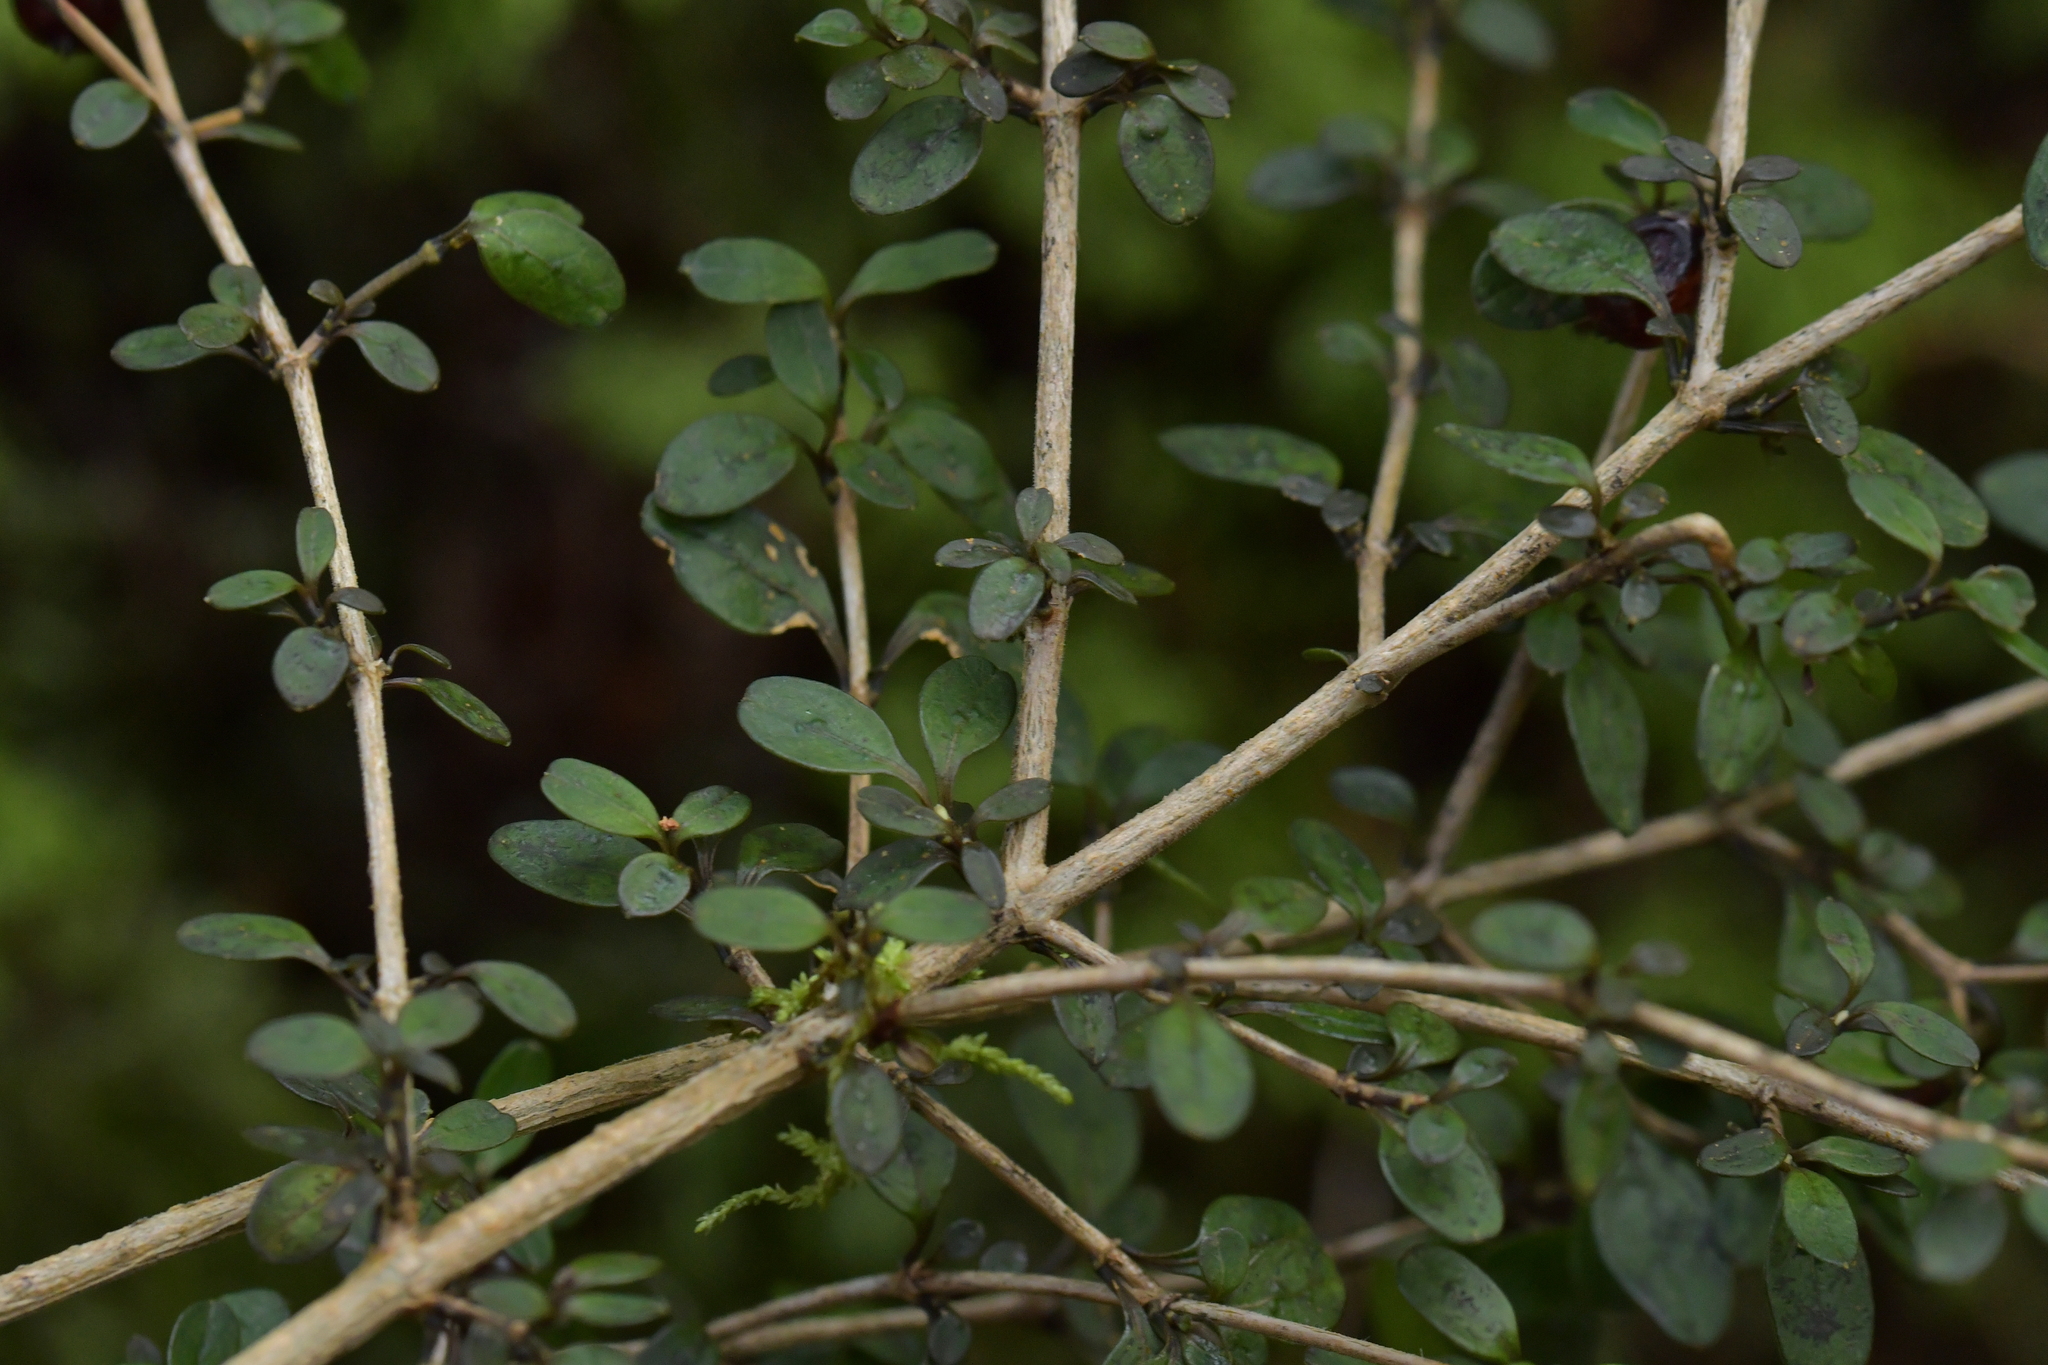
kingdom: Plantae
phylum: Tracheophyta
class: Magnoliopsida
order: Gentianales
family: Rubiaceae
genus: Coprosma
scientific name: Coprosma colensoi
